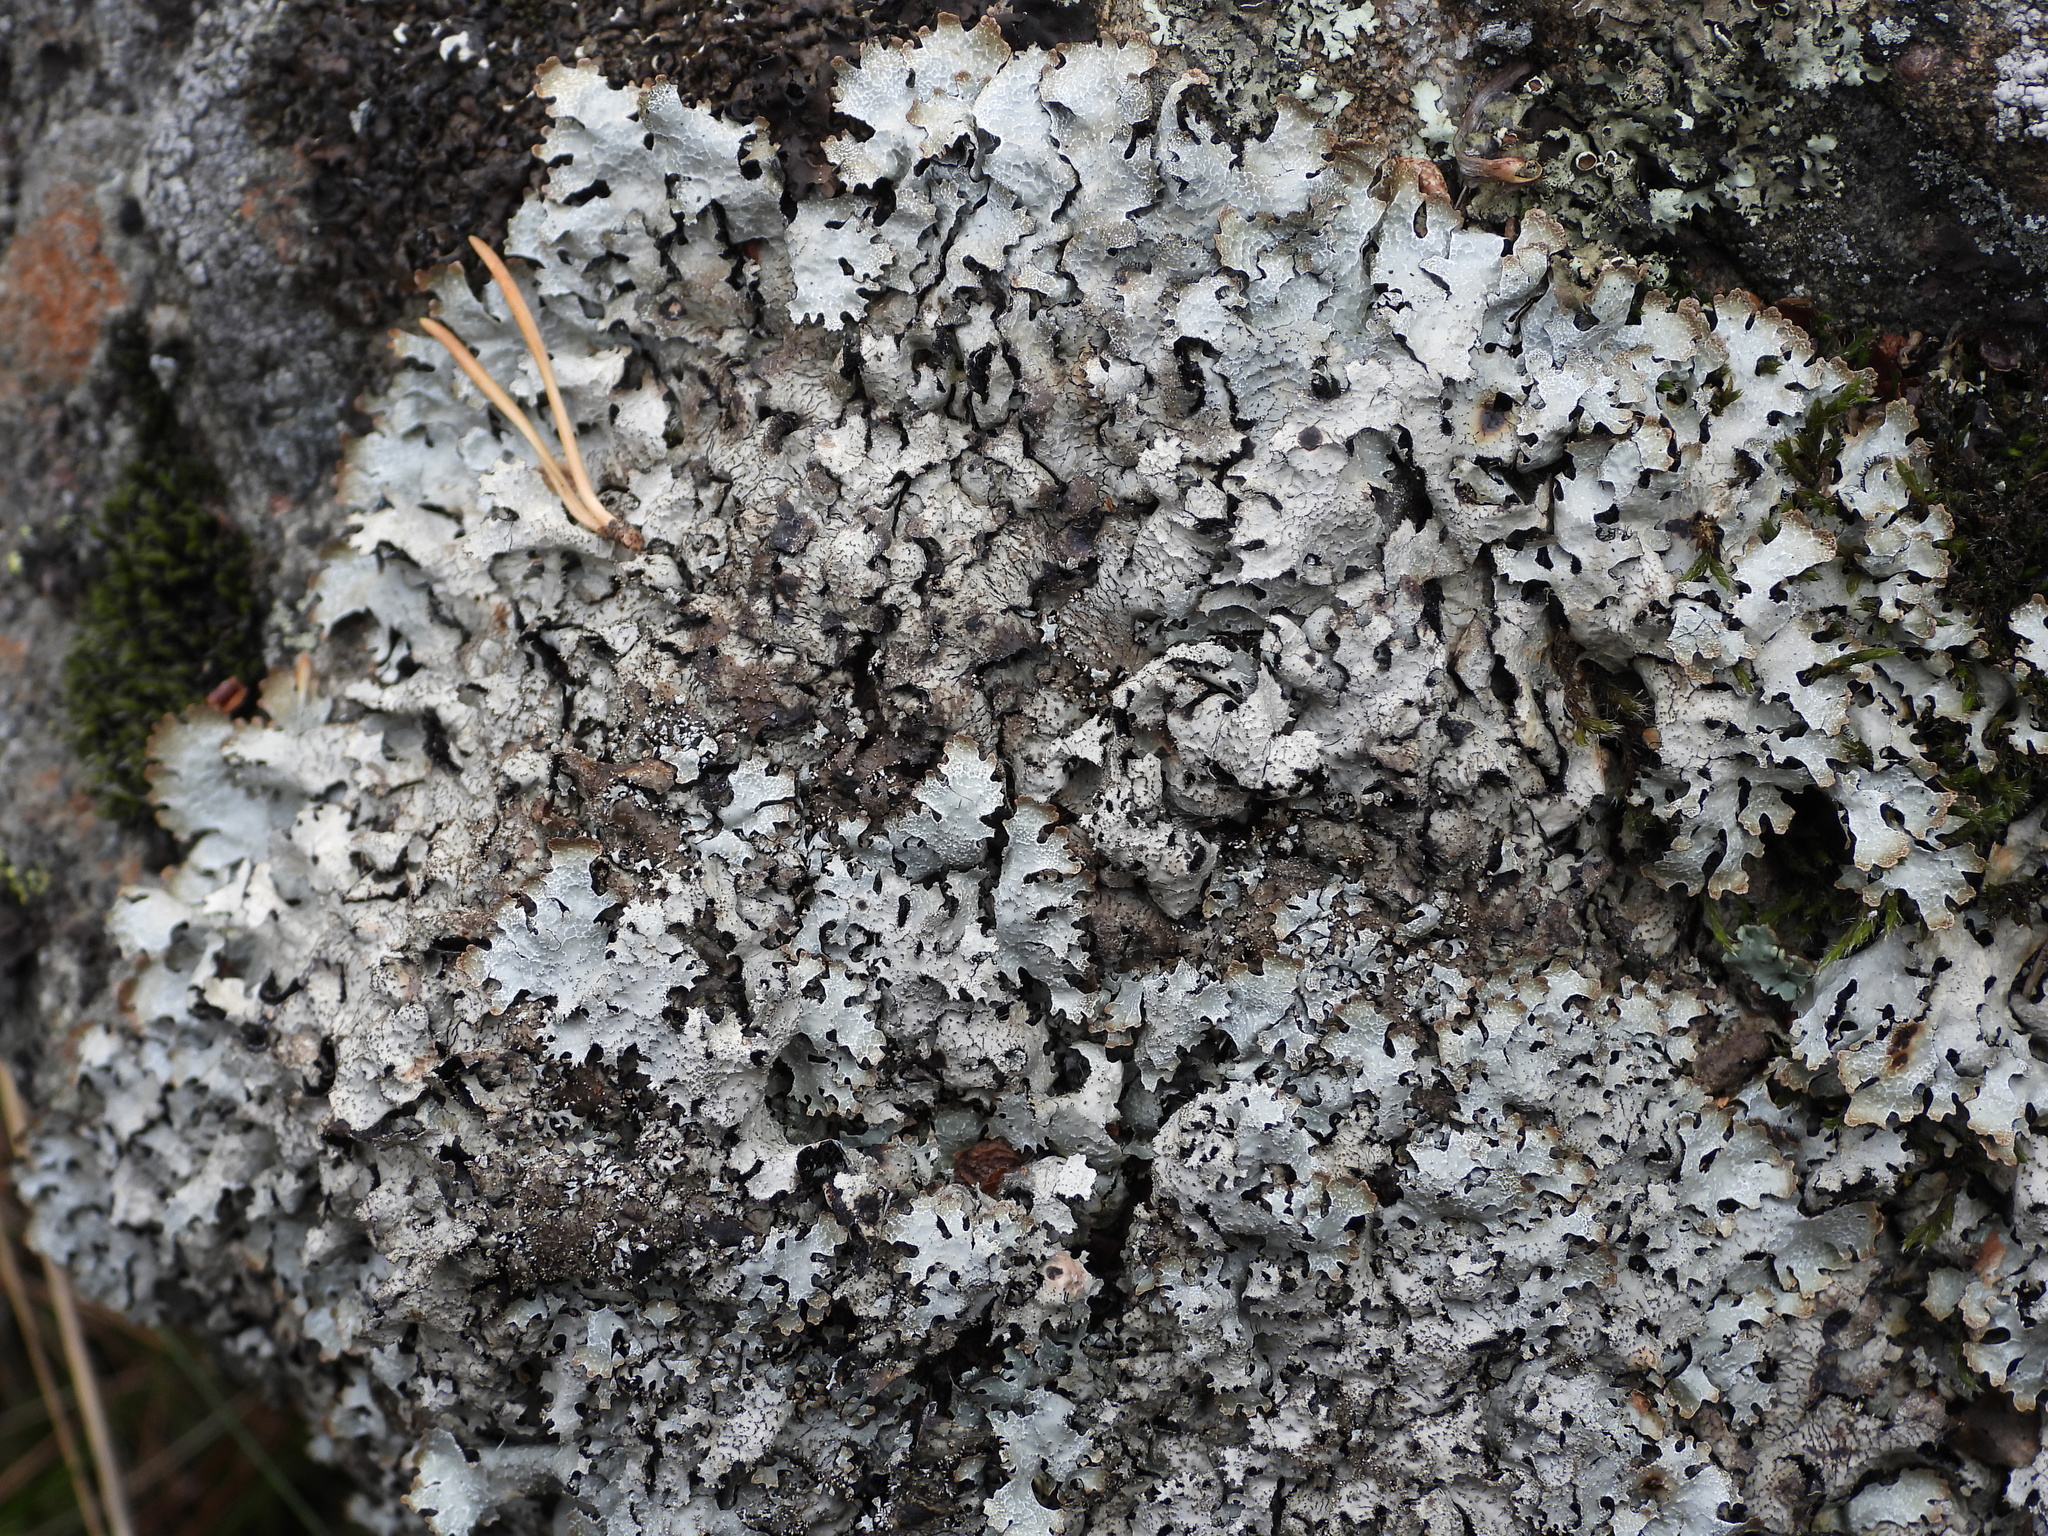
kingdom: Fungi
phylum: Ascomycota
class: Lecanoromycetes
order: Lecanorales
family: Parmeliaceae
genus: Parmelia
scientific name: Parmelia saxatilis
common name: Salted shield lichen
